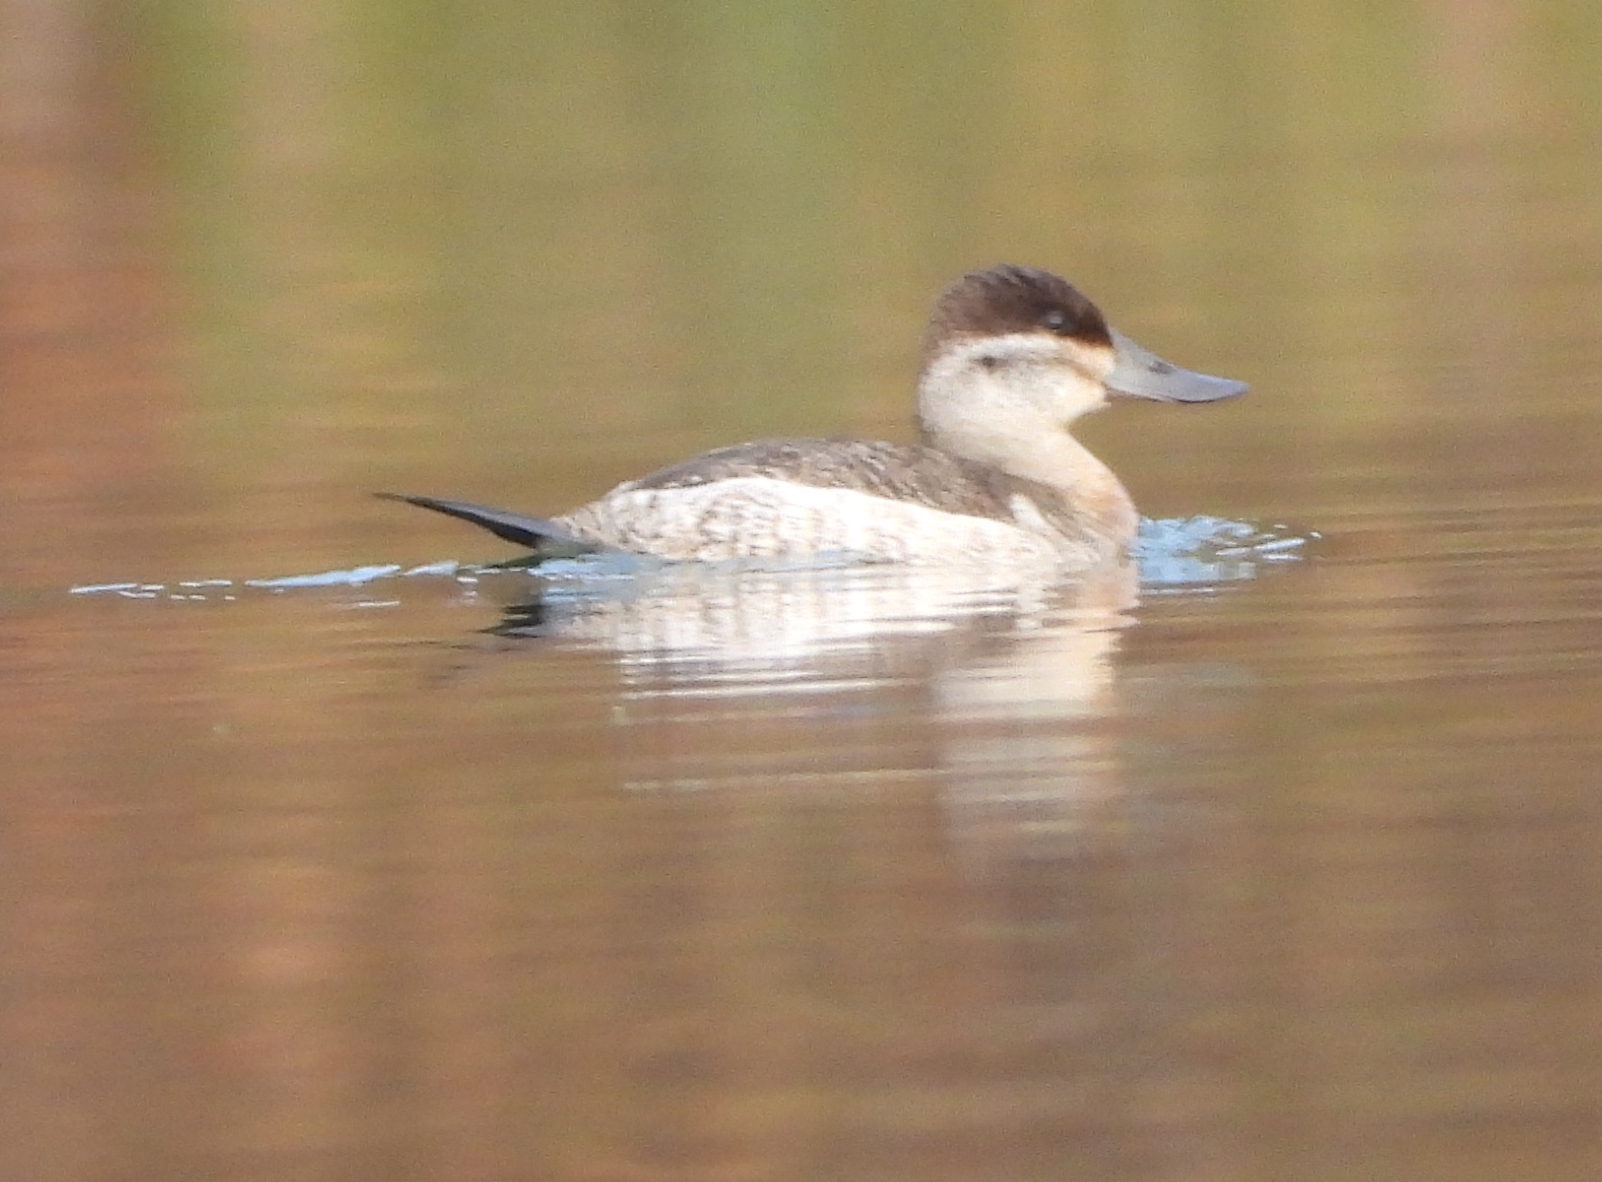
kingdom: Animalia
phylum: Chordata
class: Aves
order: Anseriformes
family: Anatidae
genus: Oxyura
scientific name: Oxyura jamaicensis
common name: Ruddy duck
